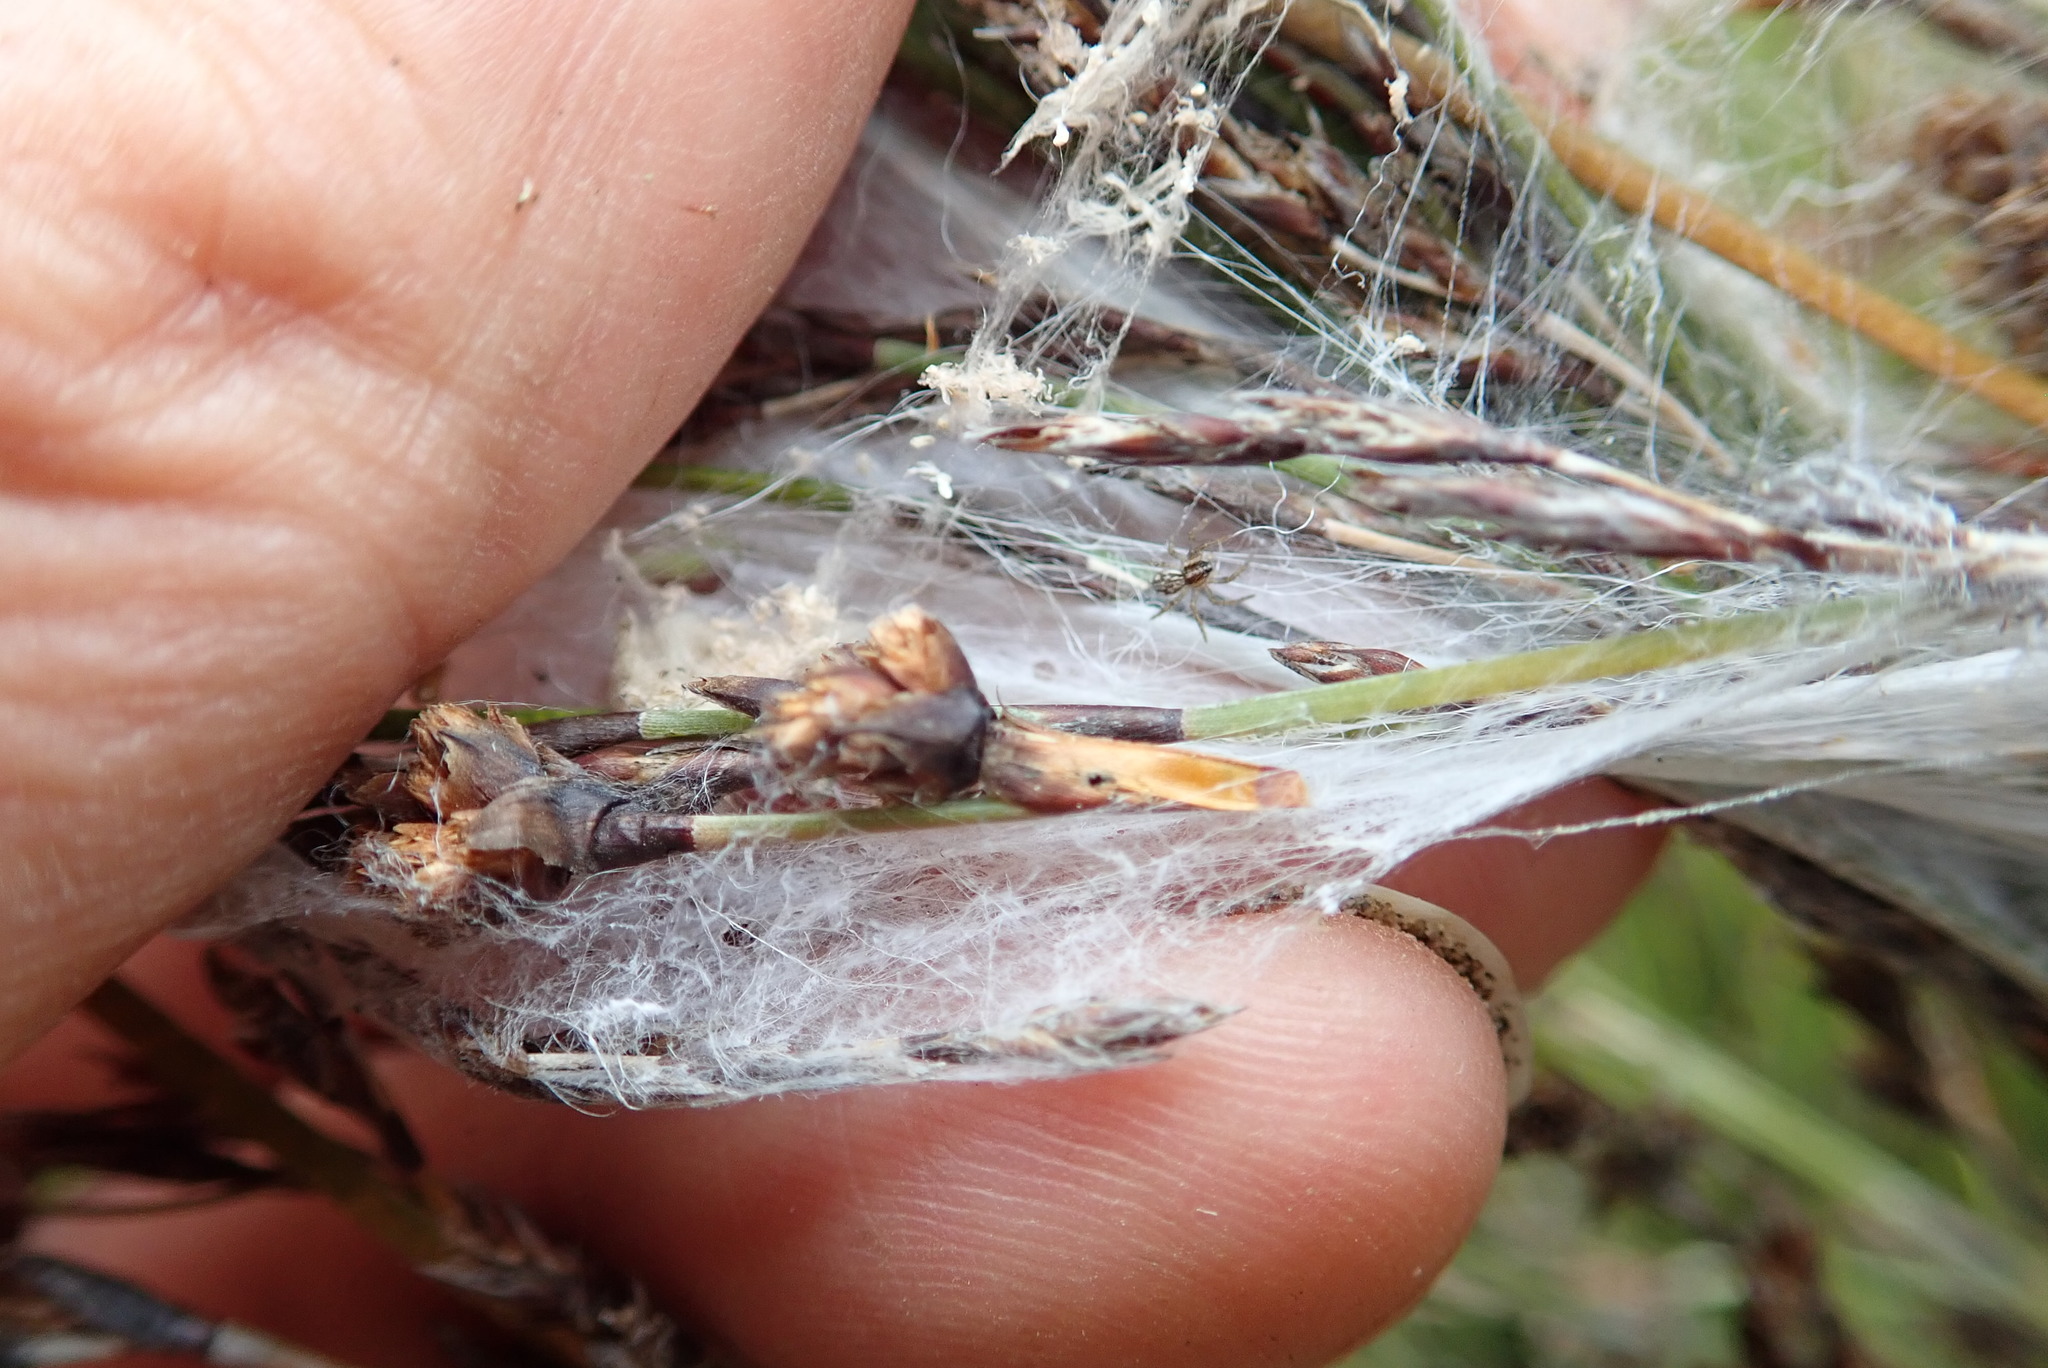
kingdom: Animalia
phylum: Arthropoda
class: Arachnida
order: Araneae
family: Pisauridae
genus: Dolomedes
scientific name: Dolomedes minor
